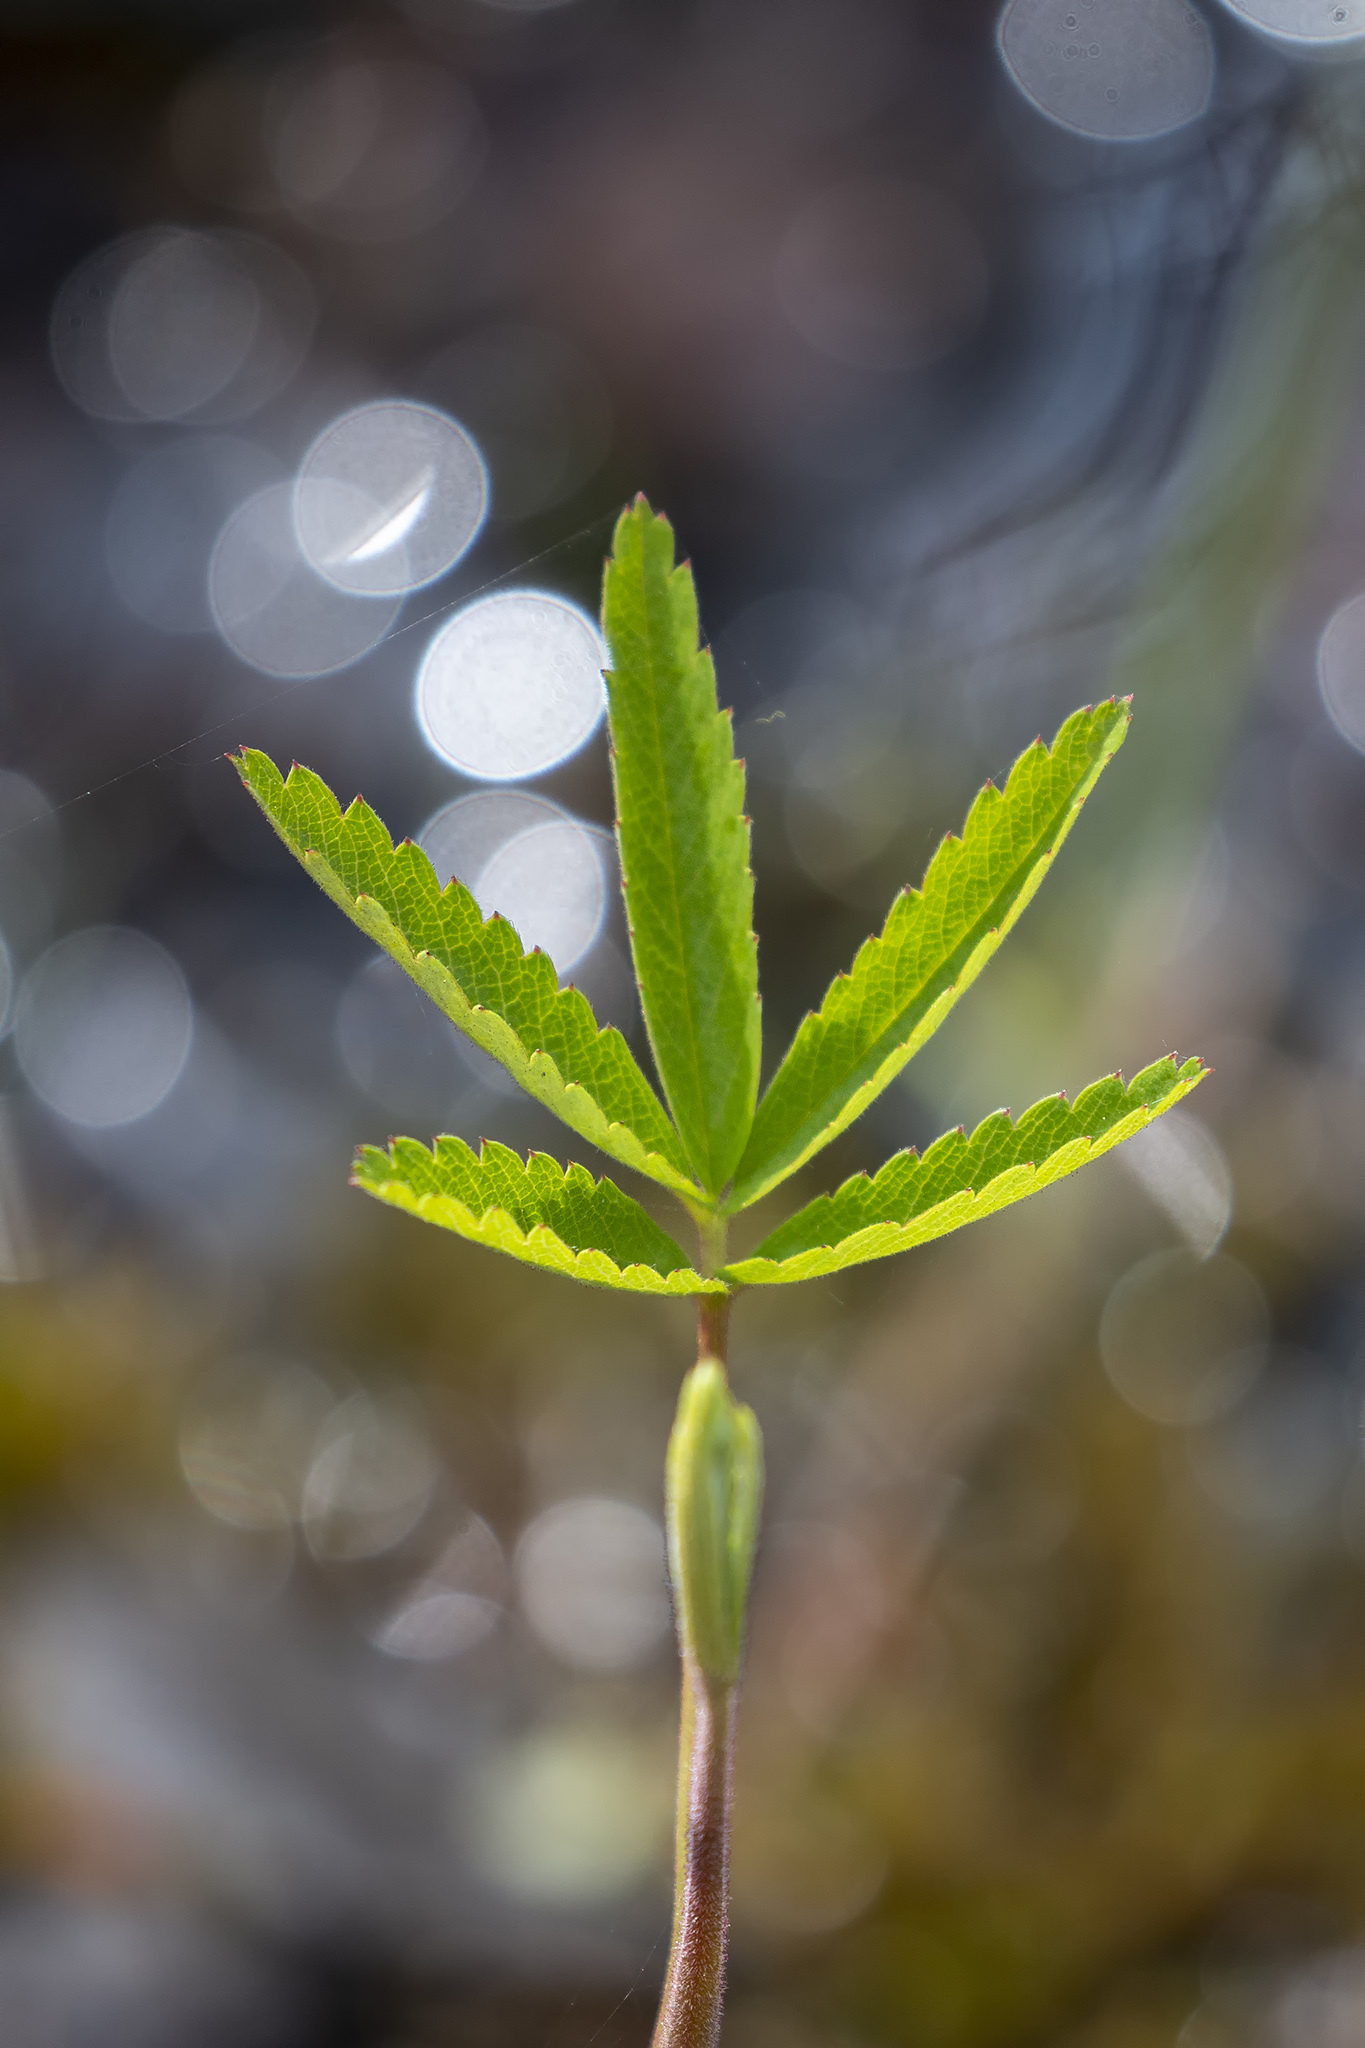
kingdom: Plantae
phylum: Tracheophyta
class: Magnoliopsida
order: Rosales
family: Rosaceae
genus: Comarum
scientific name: Comarum palustre
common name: Marsh cinquefoil
